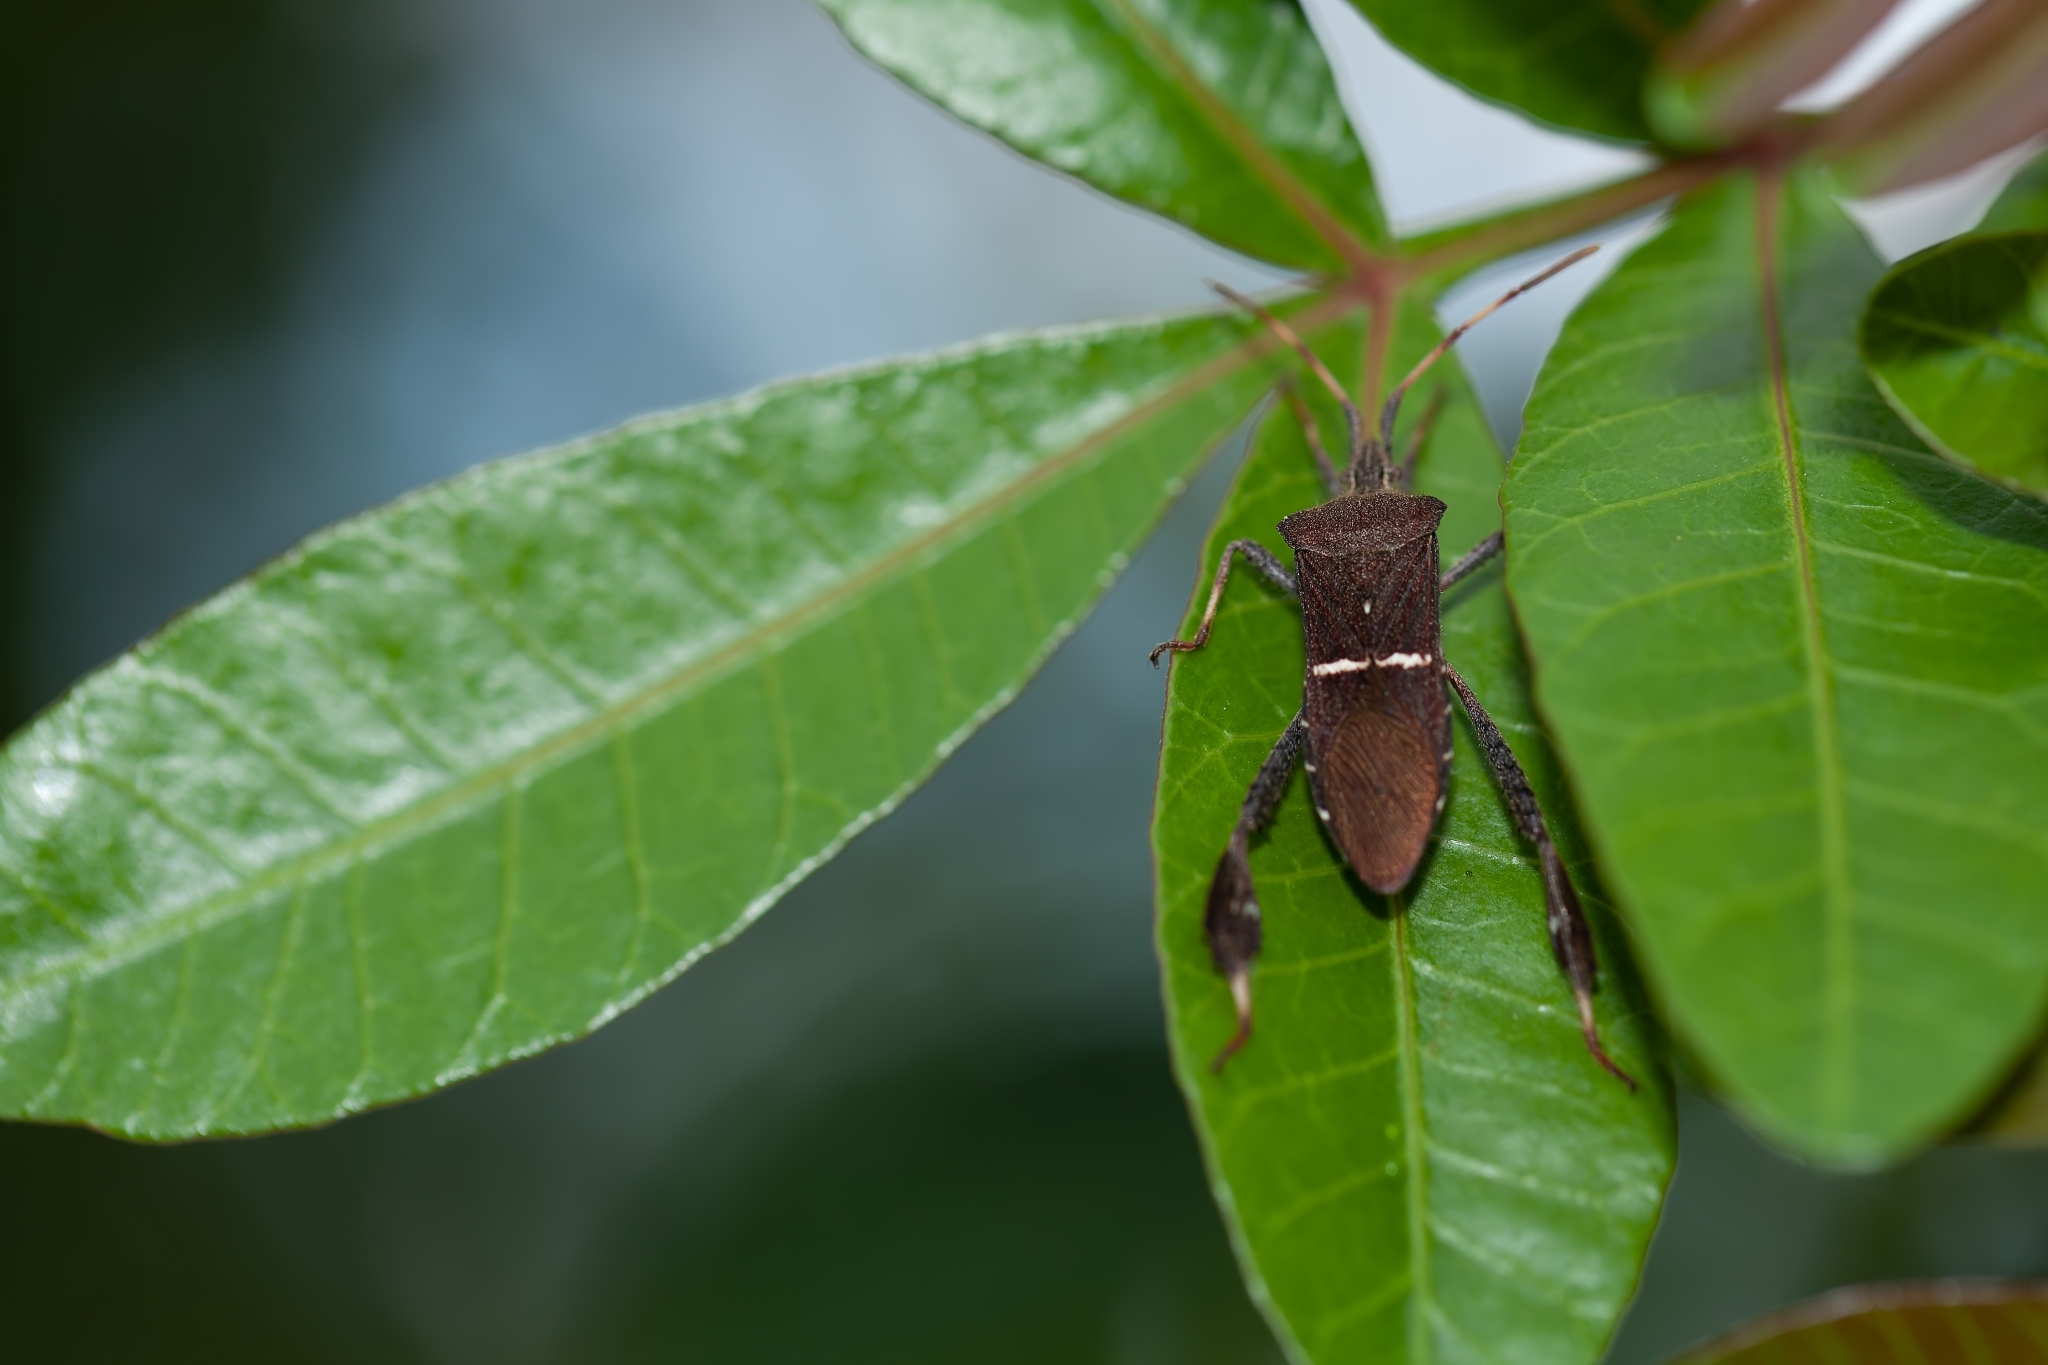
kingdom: Animalia
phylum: Arthropoda
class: Insecta
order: Hemiptera
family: Coreidae
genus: Leptoglossus
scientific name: Leptoglossus phyllopus
